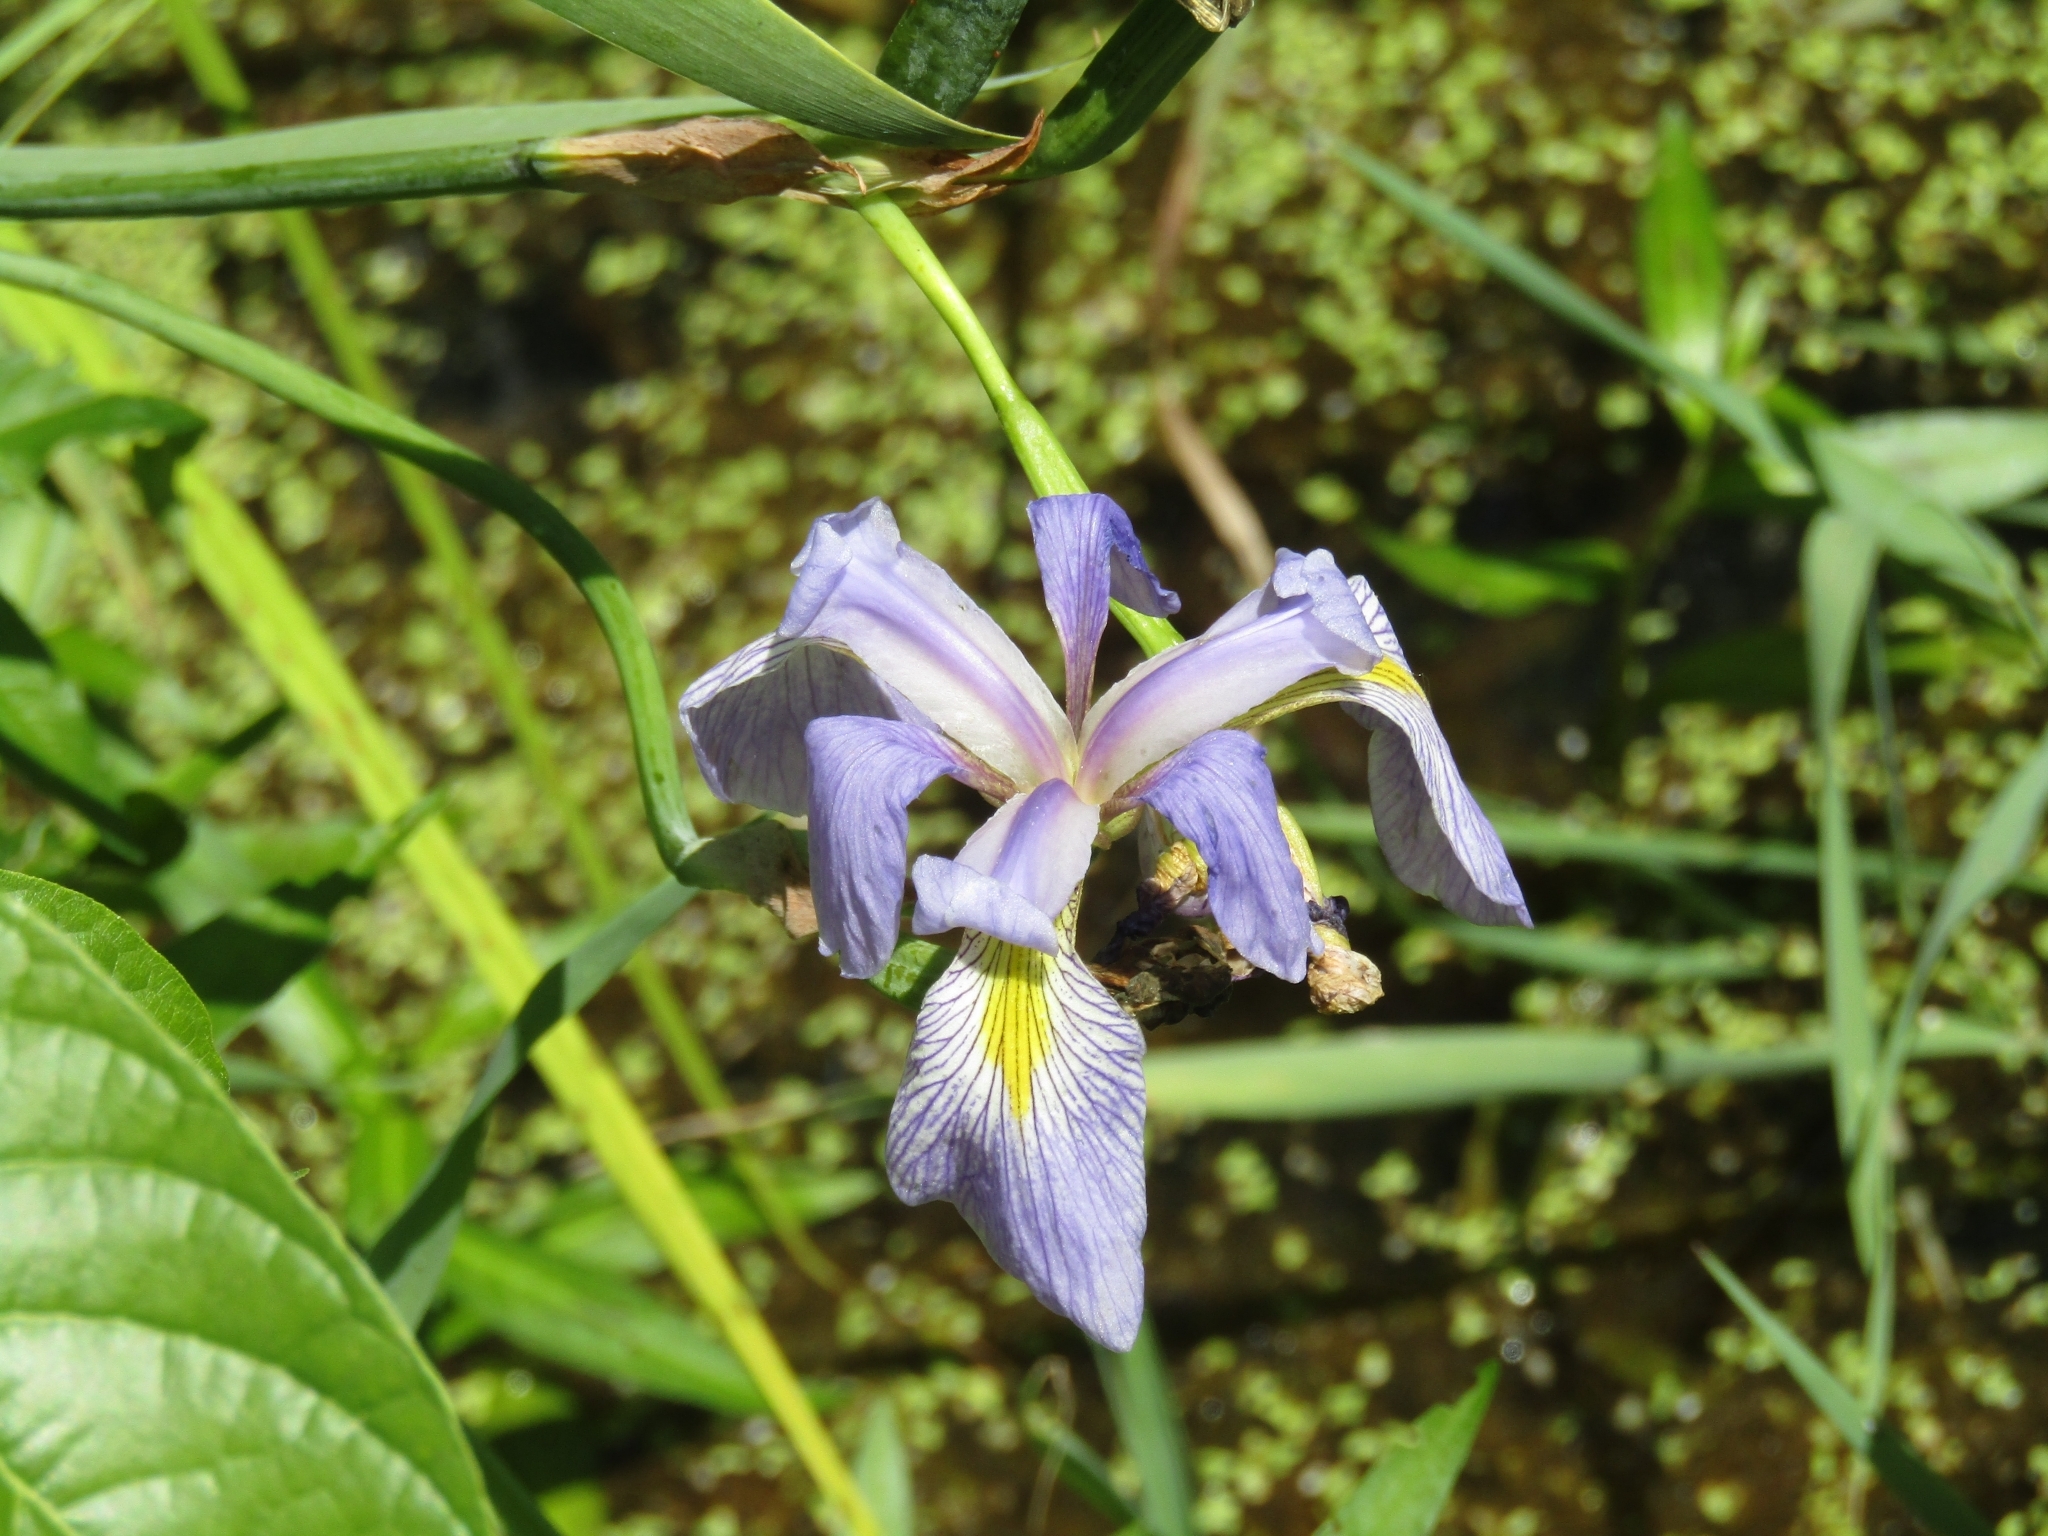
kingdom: Plantae
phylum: Tracheophyta
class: Liliopsida
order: Asparagales
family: Iridaceae
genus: Iris
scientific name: Iris virginica
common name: Southern blue flag
